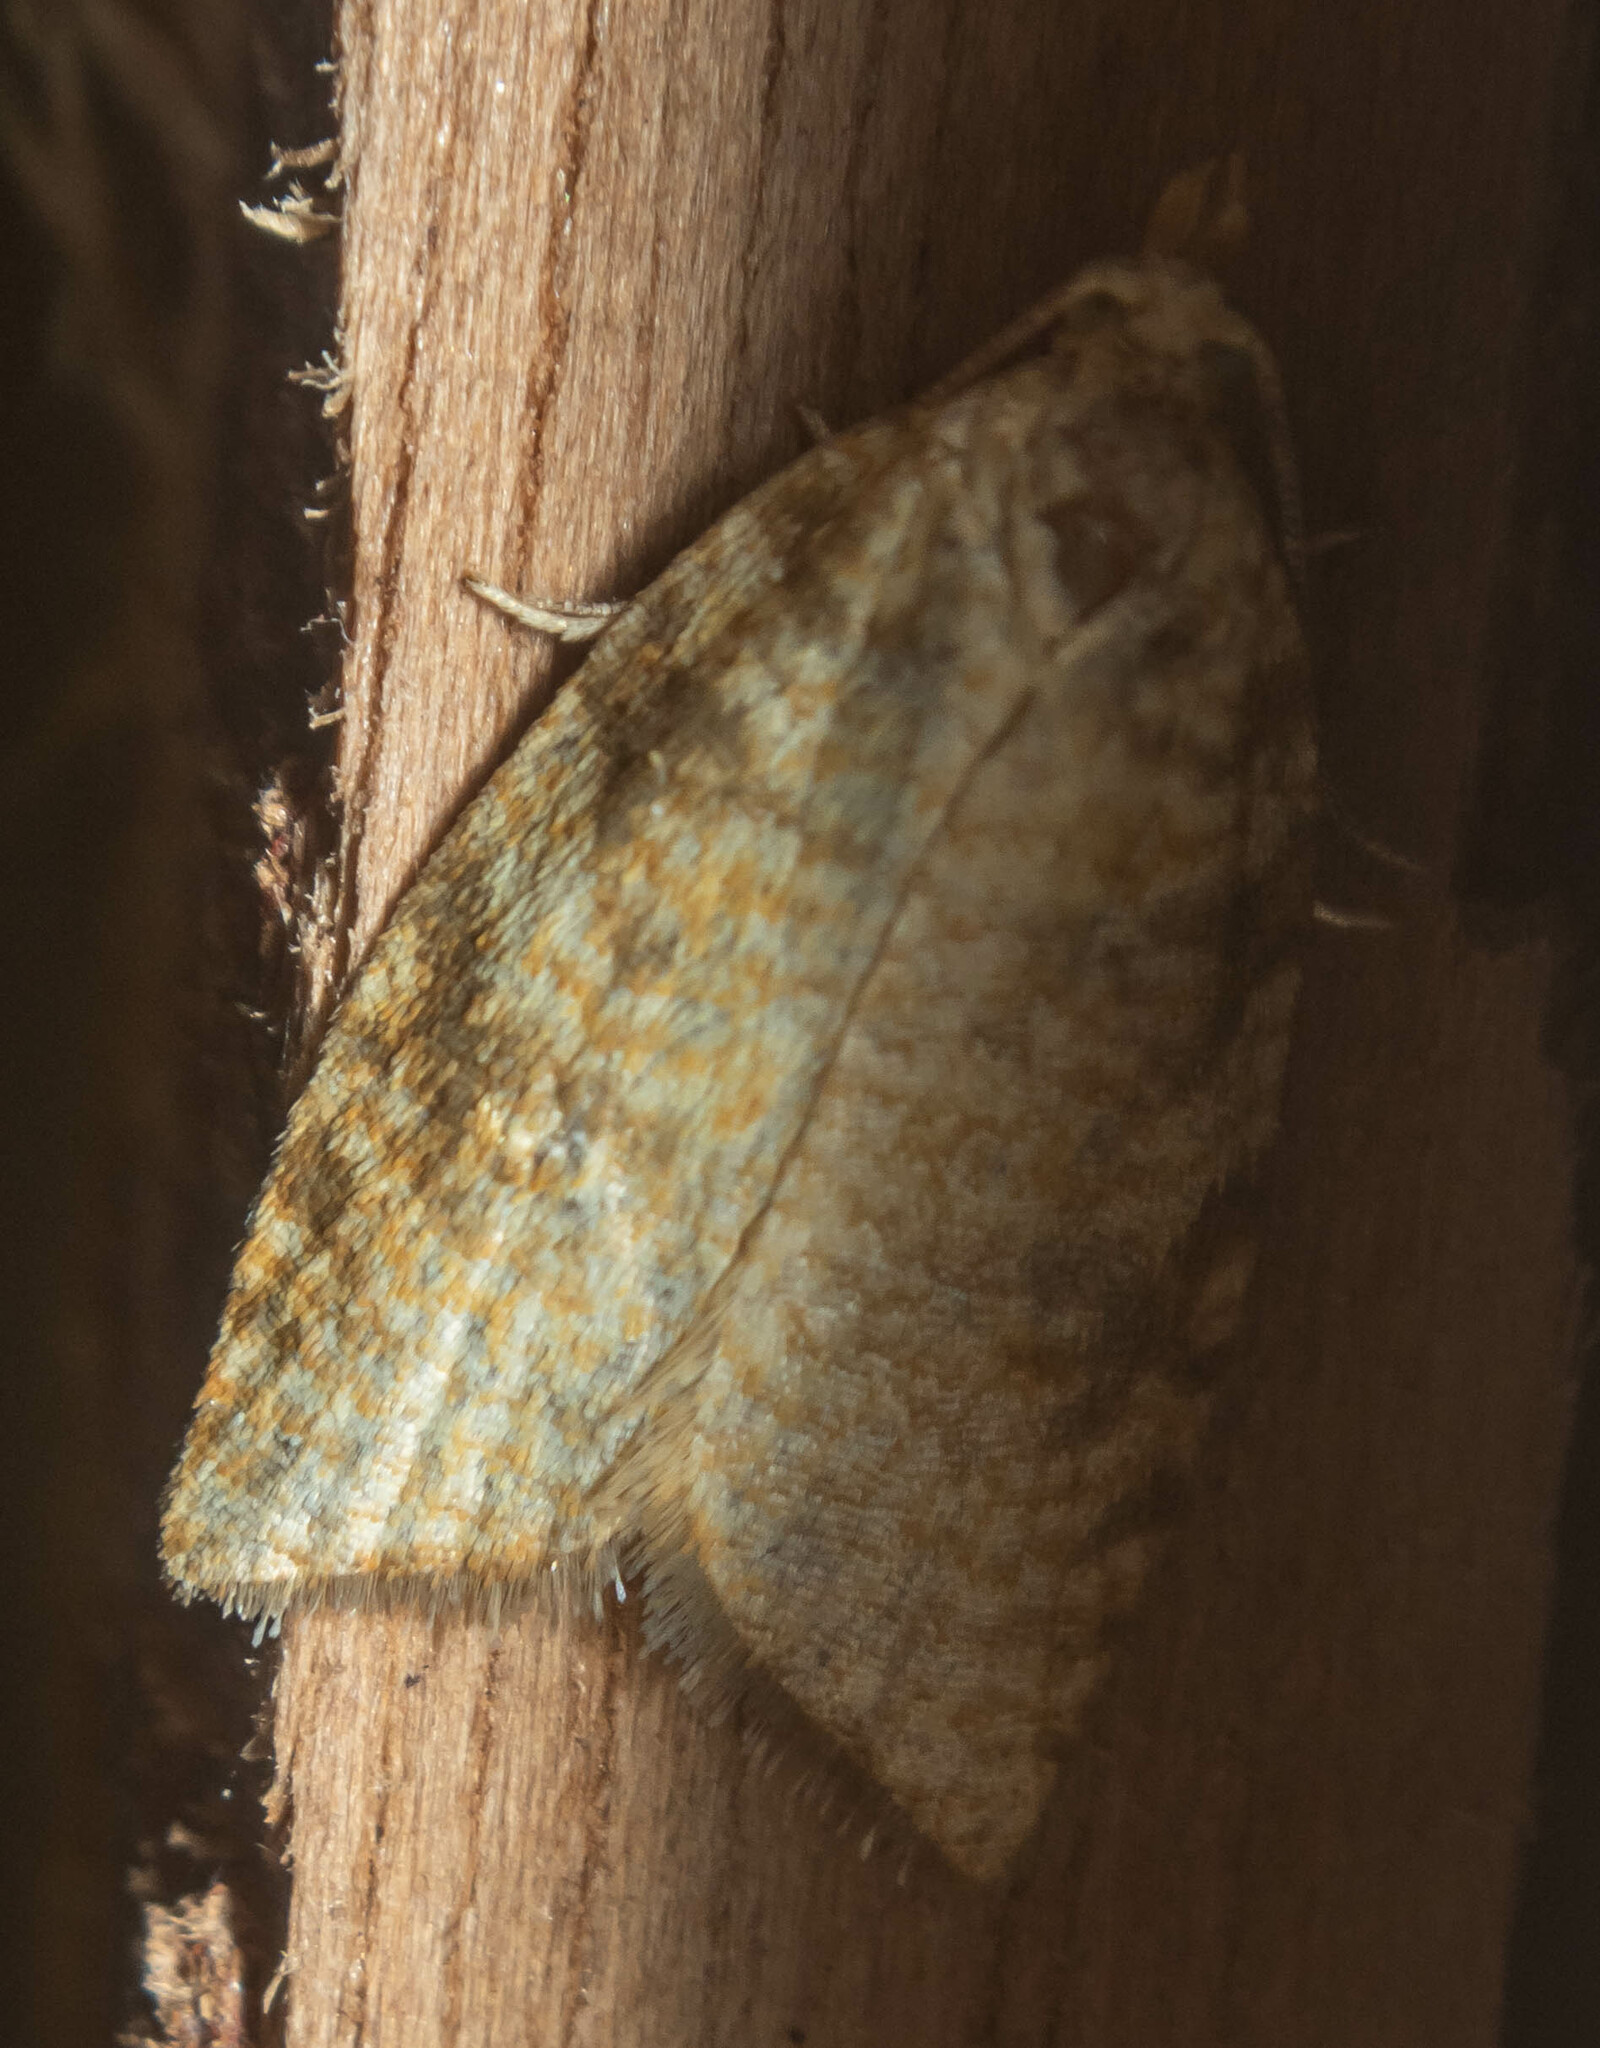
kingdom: Animalia
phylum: Arthropoda
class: Insecta
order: Lepidoptera
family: Tortricidae
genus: Aleimma
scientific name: Aleimma loeflingiana
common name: Yellow oak button
